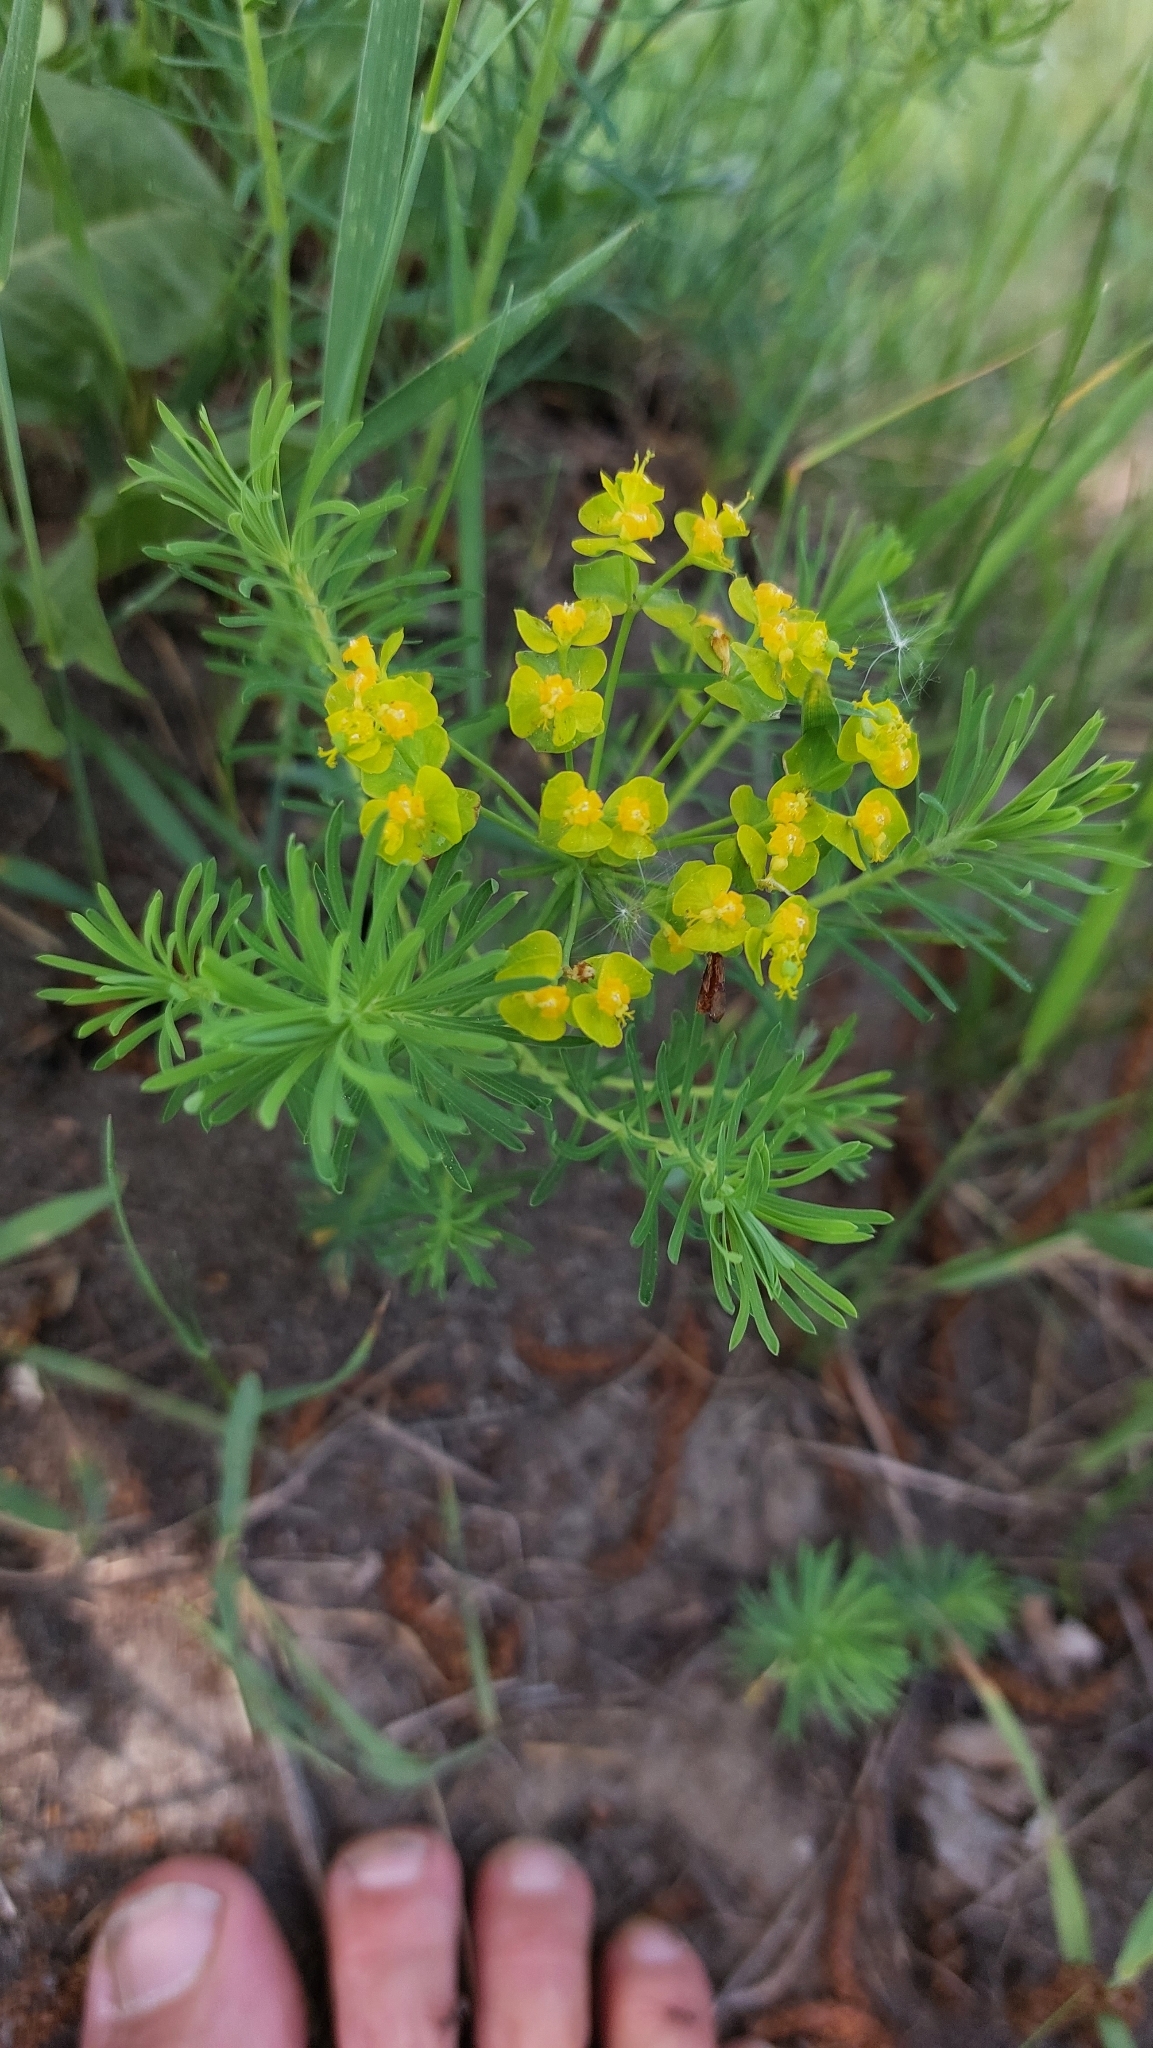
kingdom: Plantae
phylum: Tracheophyta
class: Magnoliopsida
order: Malpighiales
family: Euphorbiaceae
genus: Euphorbia
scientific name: Euphorbia cyparissias
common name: Cypress spurge
